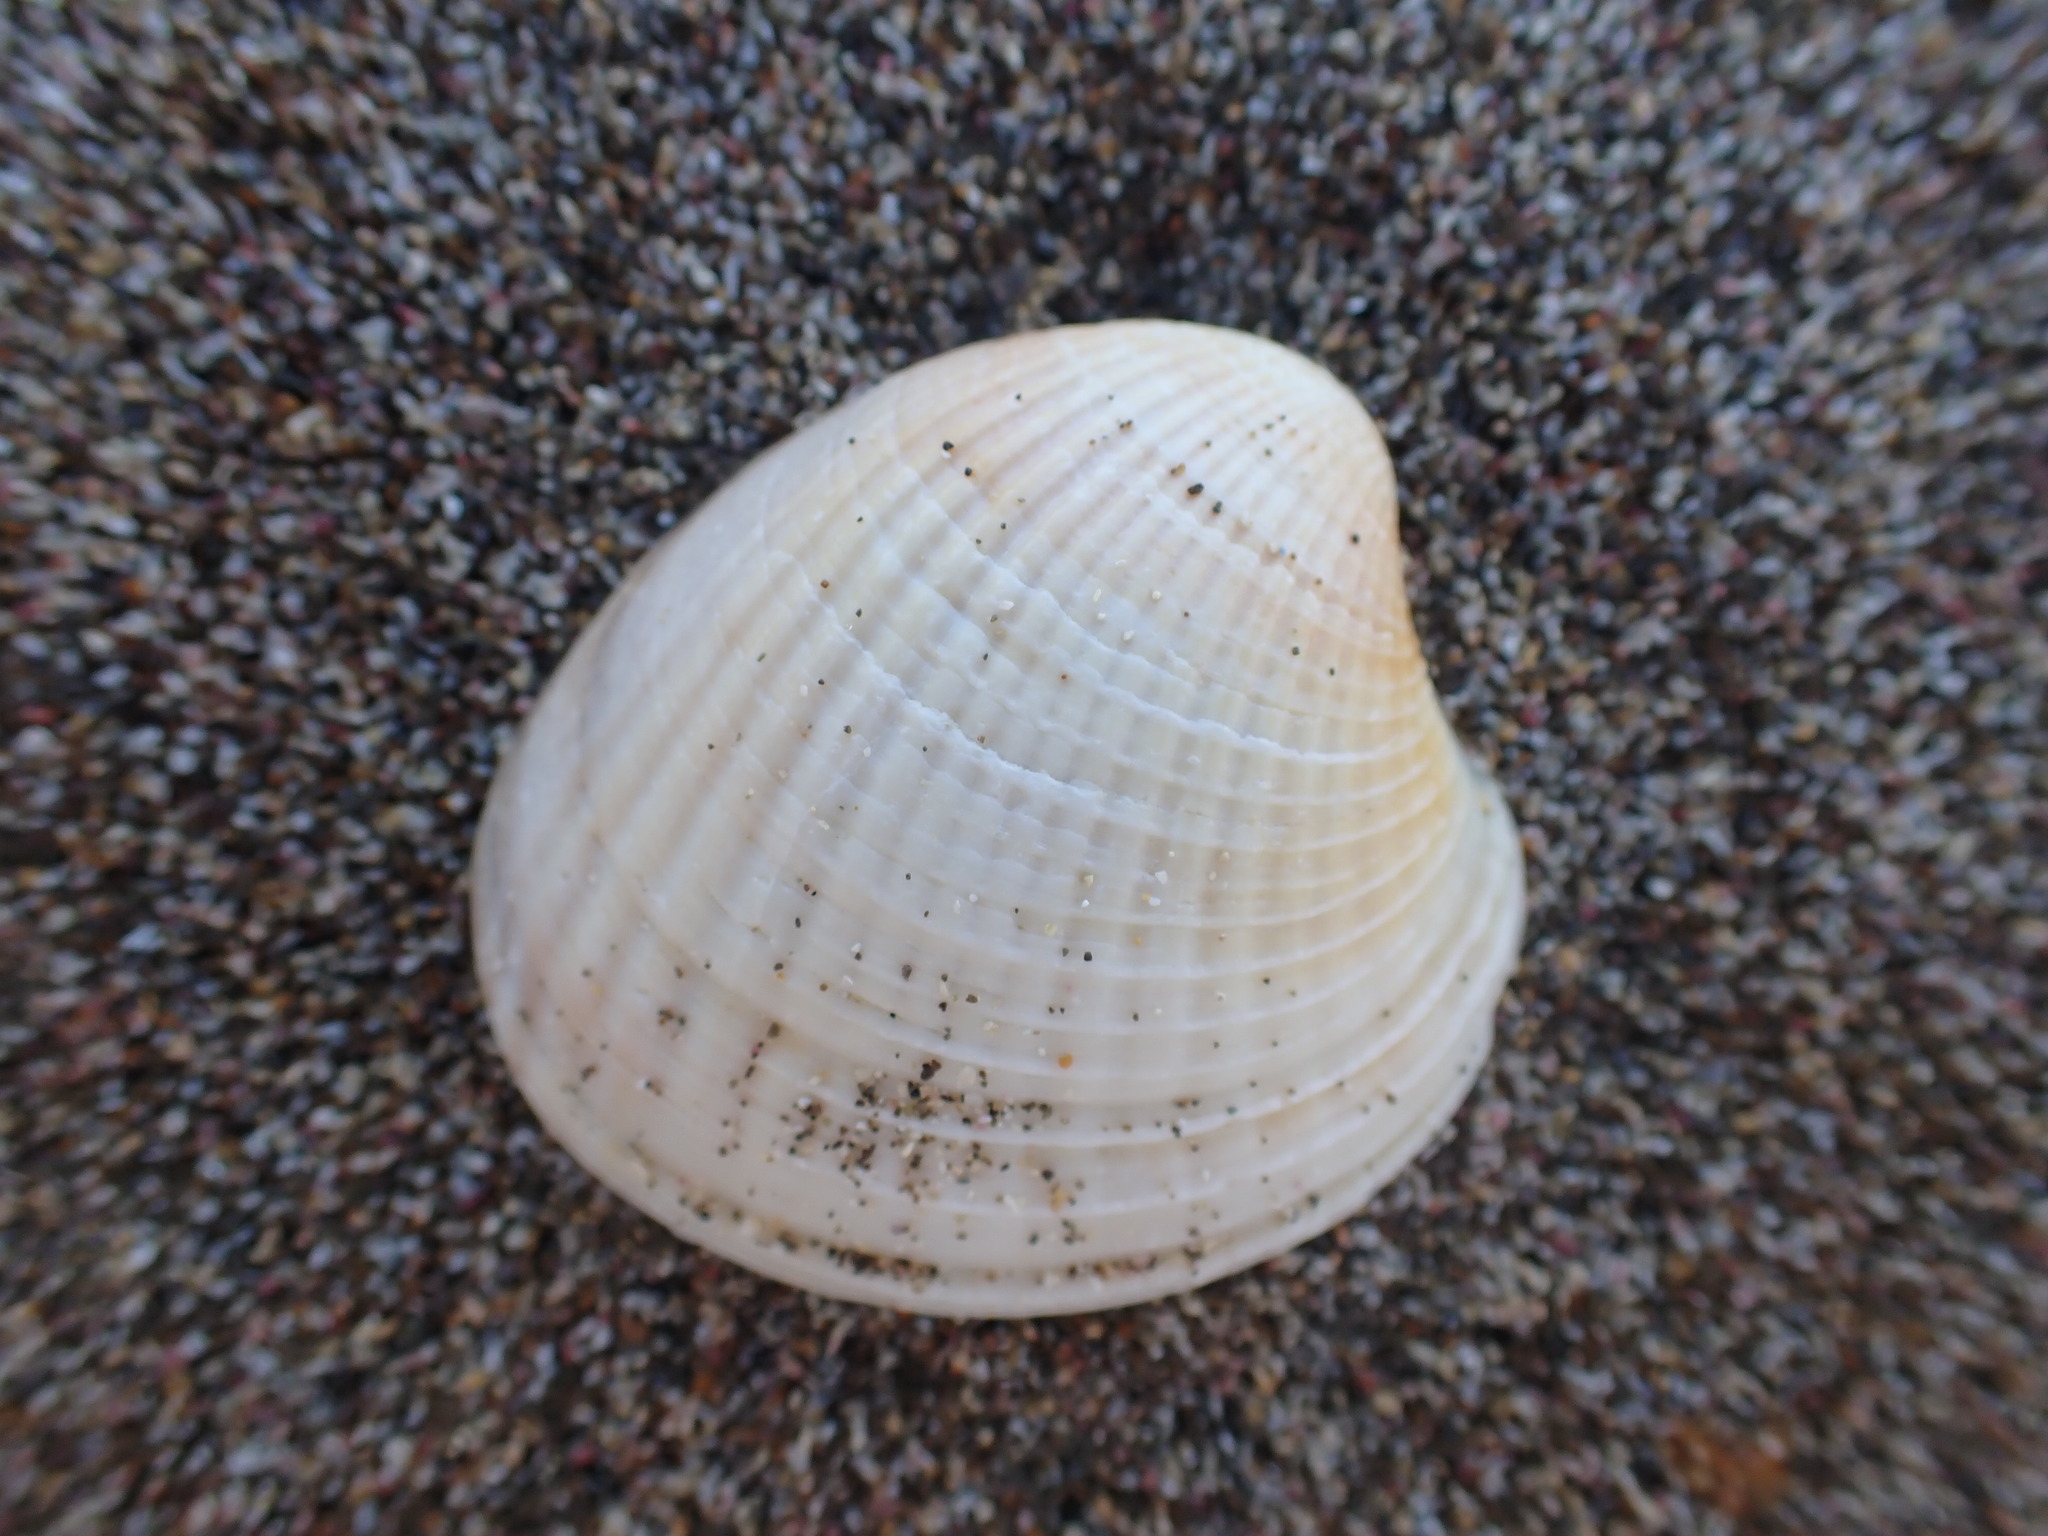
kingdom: Animalia
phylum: Mollusca
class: Bivalvia
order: Venerida
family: Veneridae
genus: Austrovenus
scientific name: Austrovenus stutchburyi
